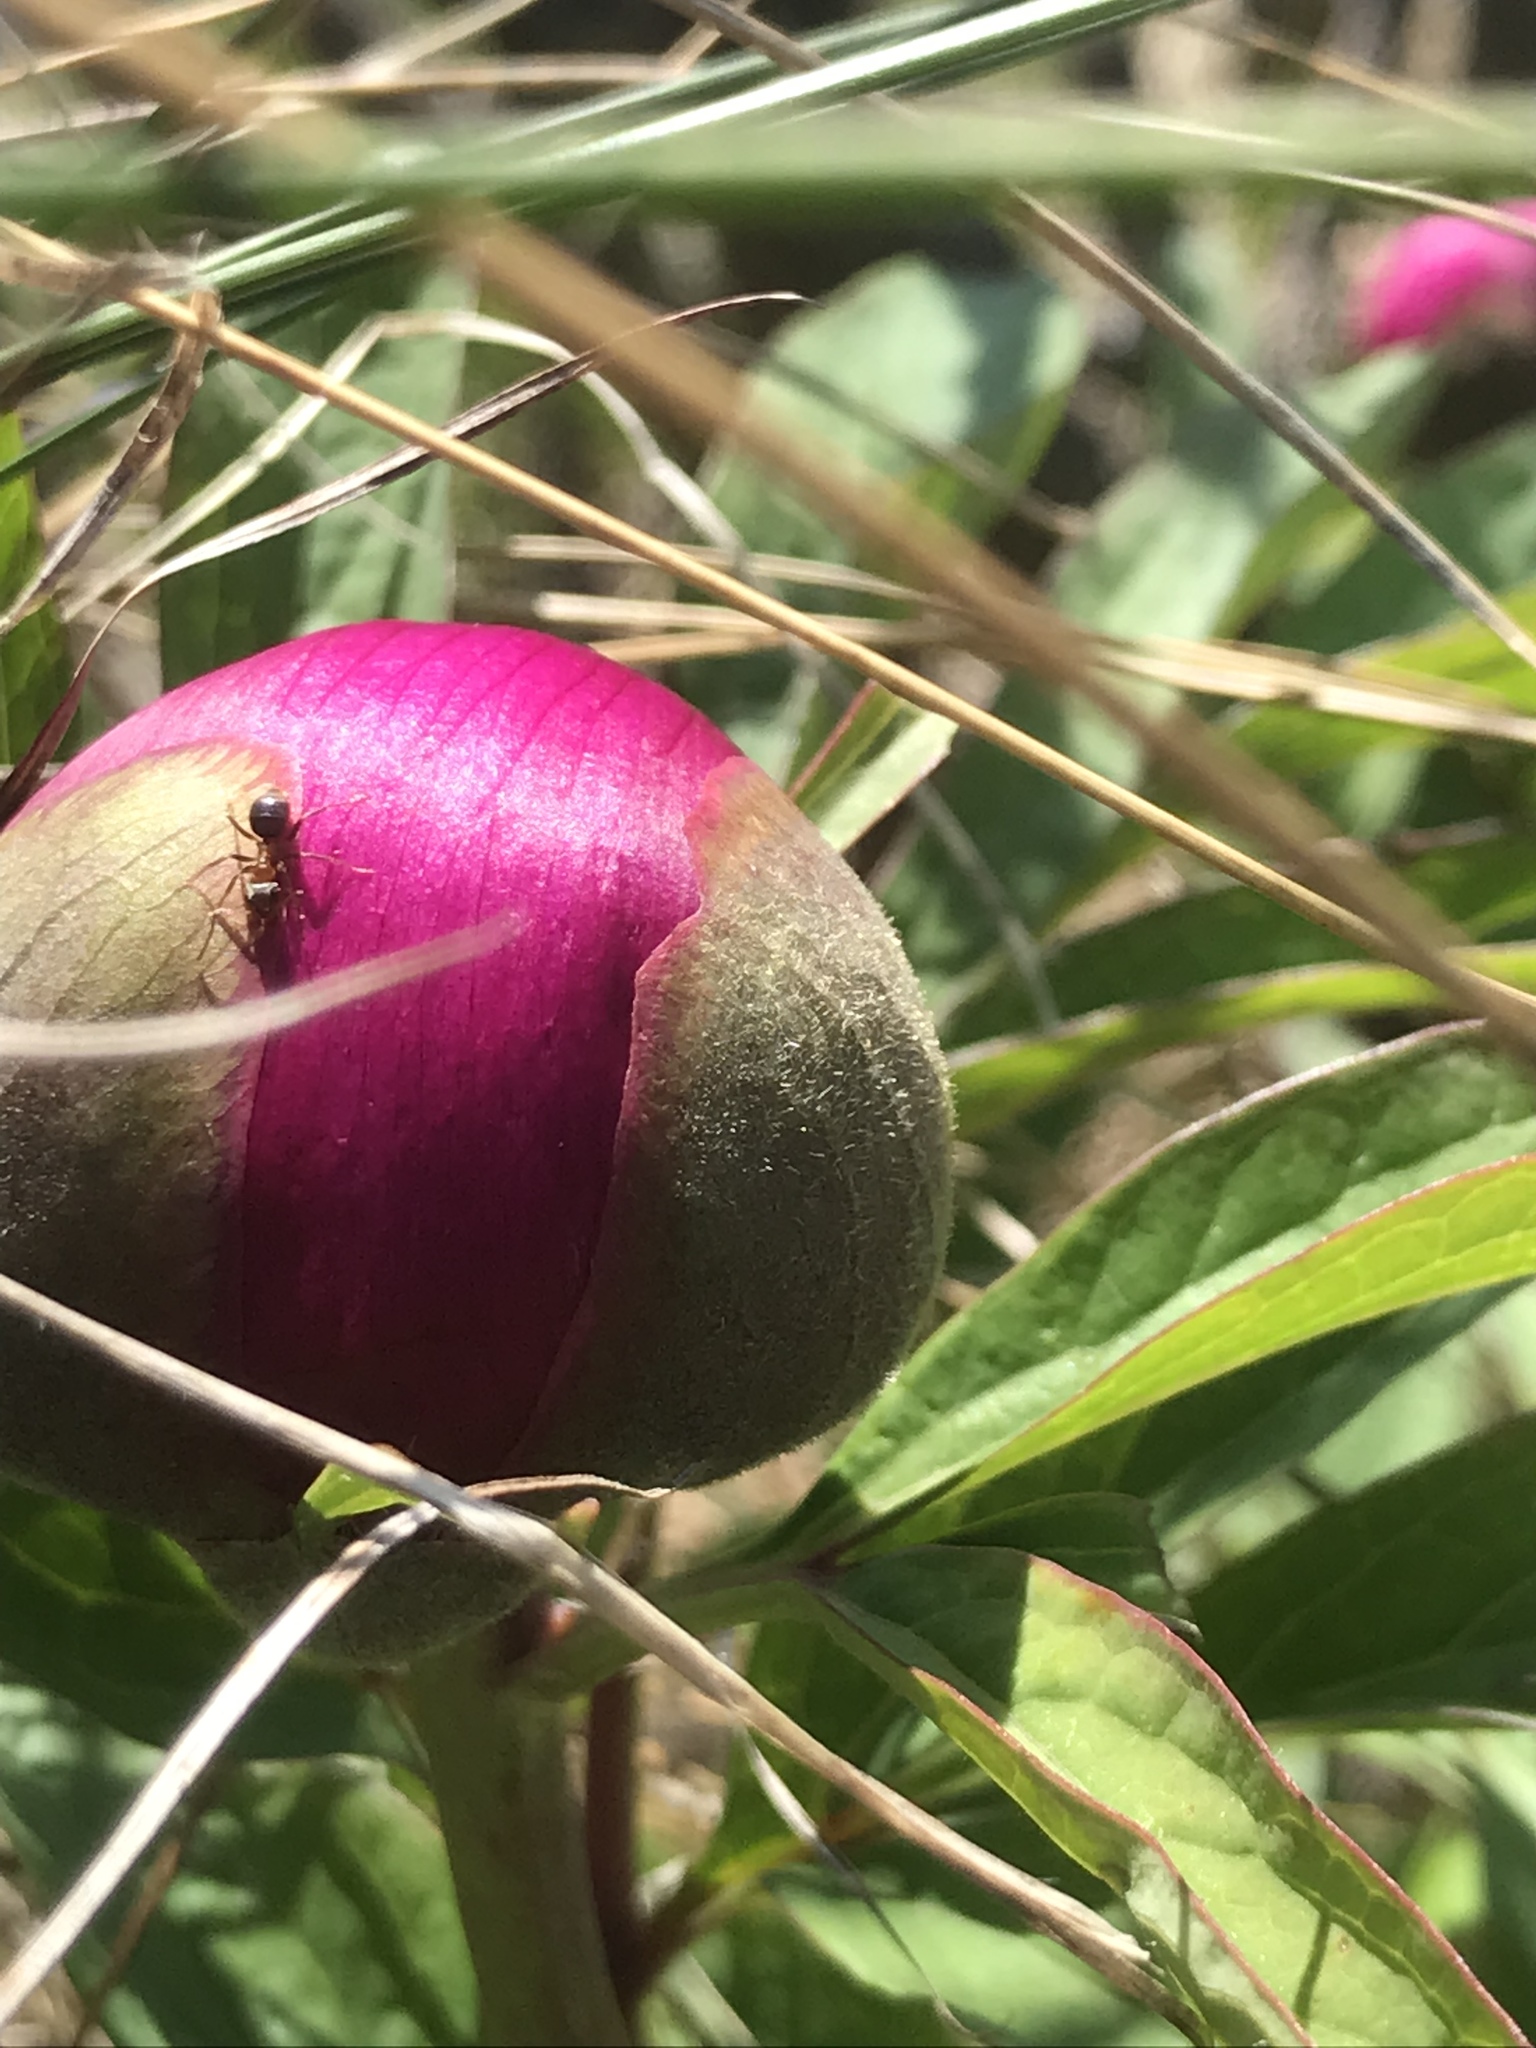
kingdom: Plantae
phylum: Tracheophyta
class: Magnoliopsida
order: Saxifragales
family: Paeoniaceae
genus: Paeonia
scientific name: Paeonia officinalis
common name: Common peony
